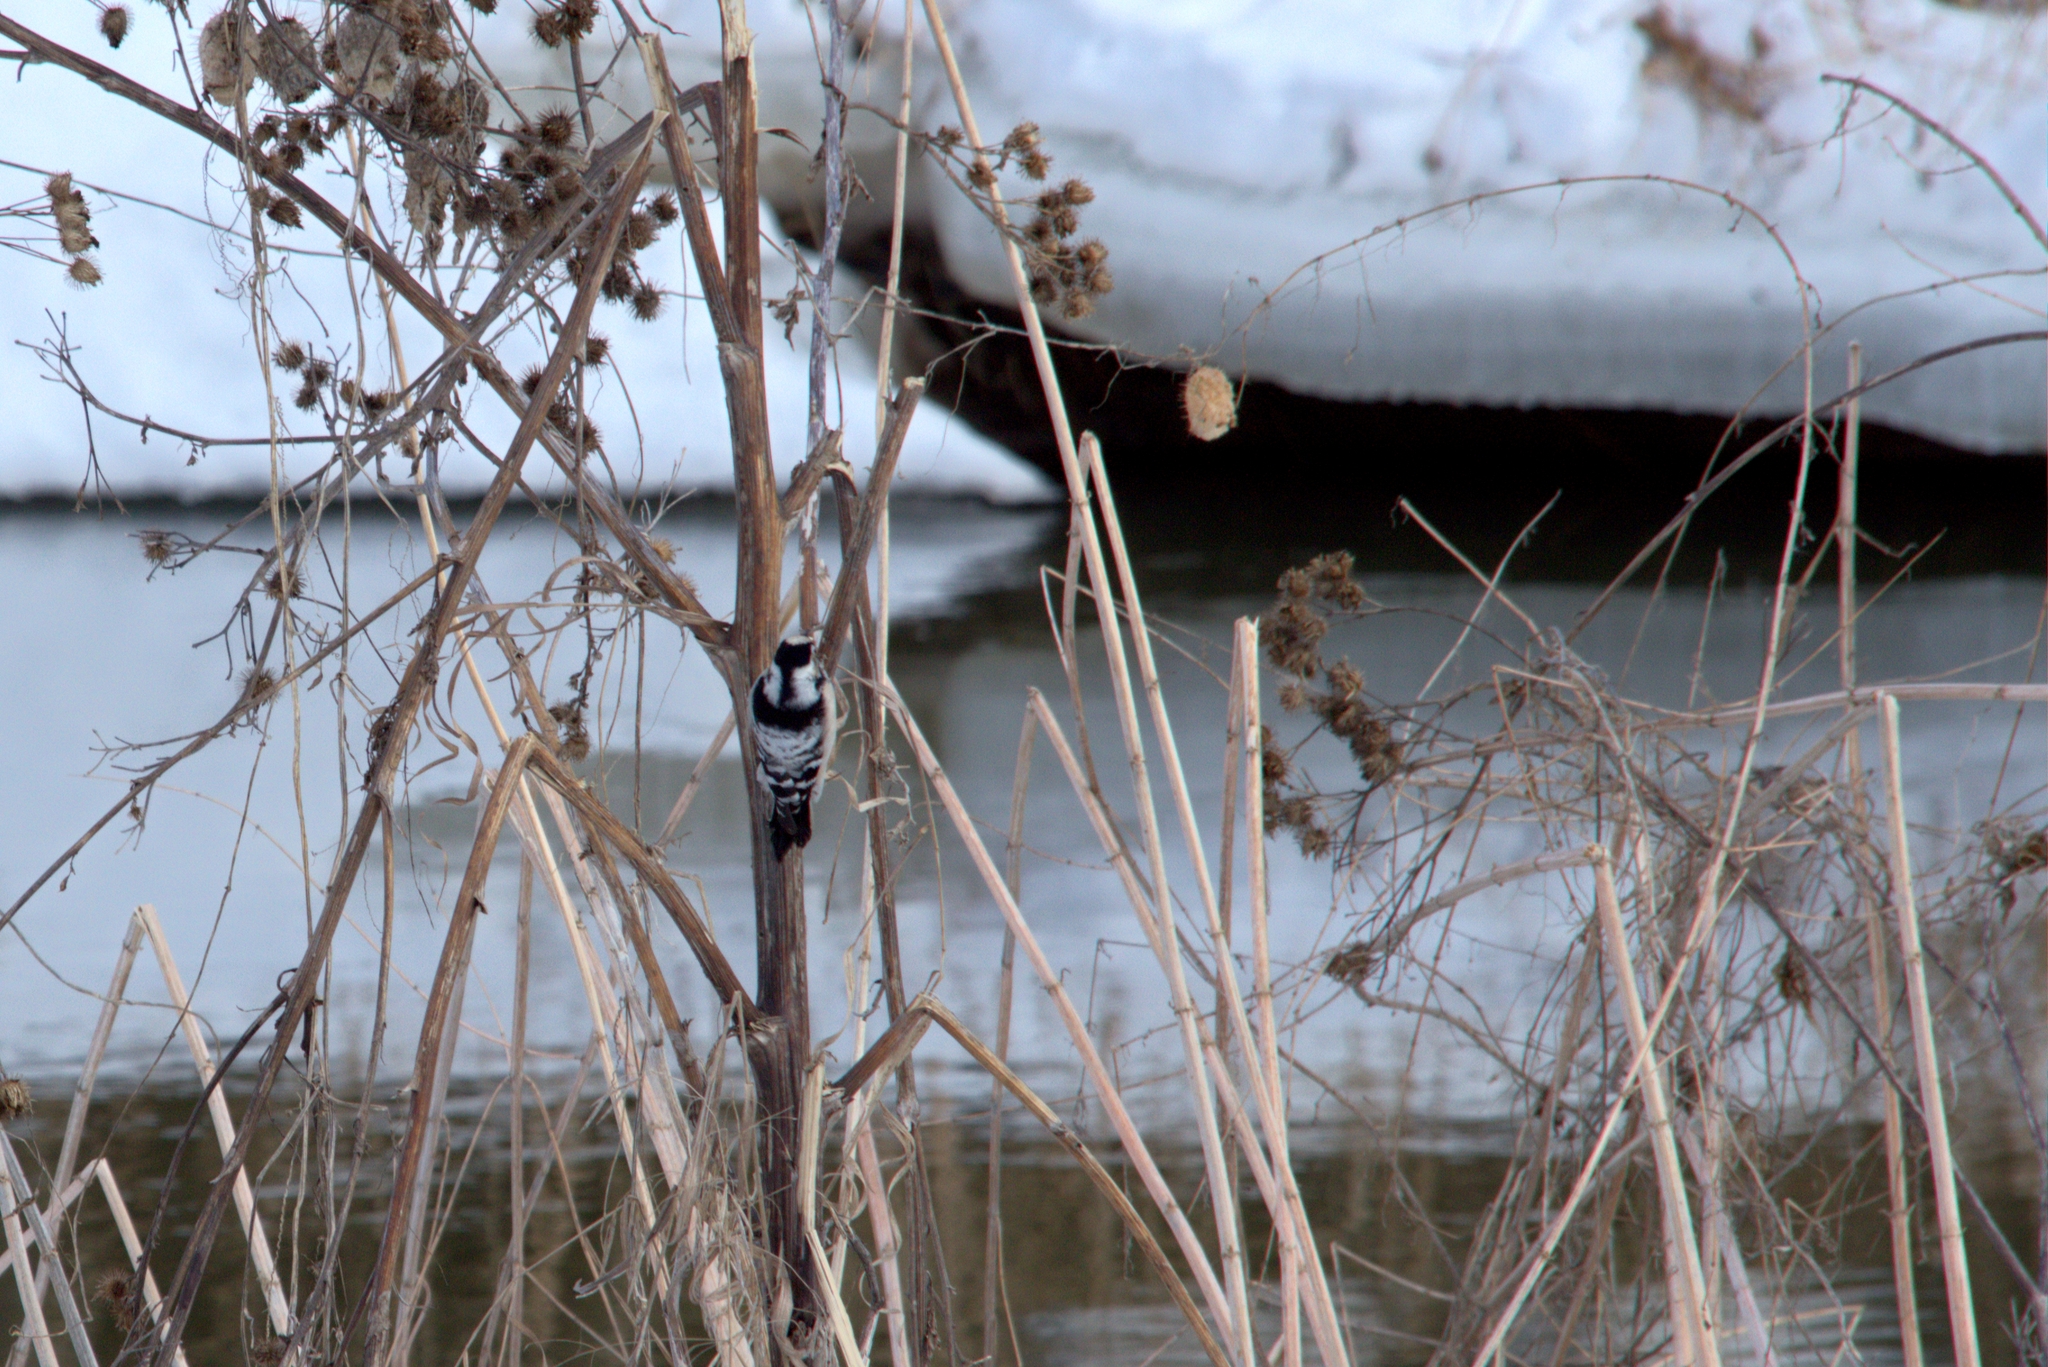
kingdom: Animalia
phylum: Chordata
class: Aves
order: Piciformes
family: Picidae
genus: Dryobates
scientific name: Dryobates minor
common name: Lesser spotted woodpecker
